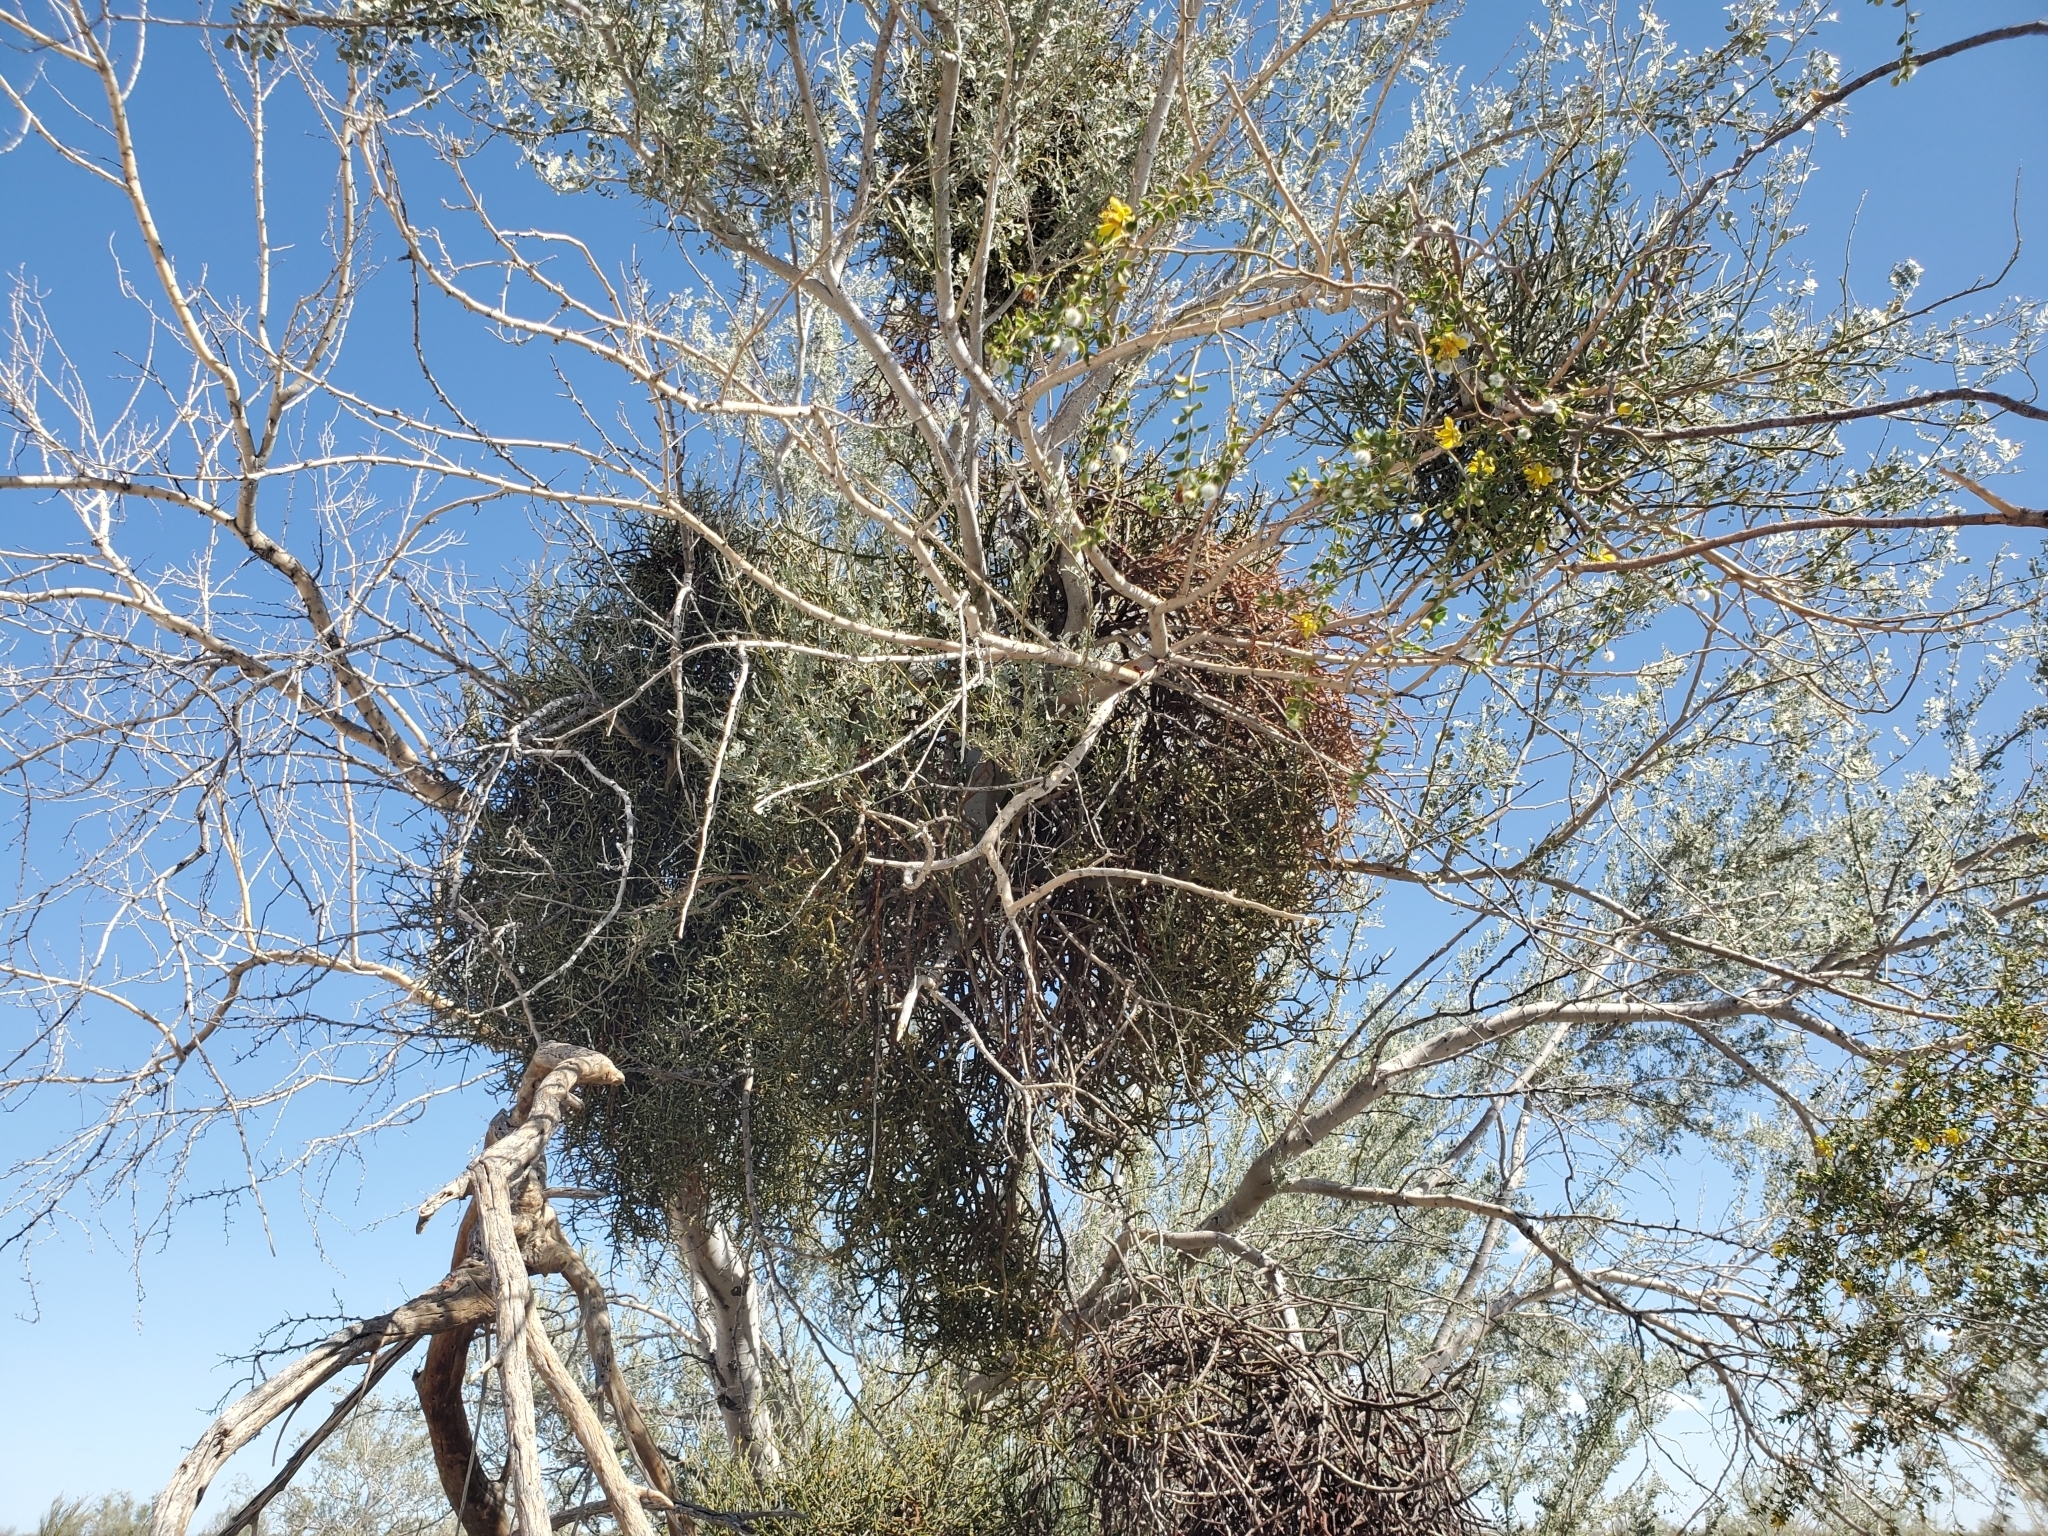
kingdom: Plantae
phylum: Tracheophyta
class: Magnoliopsida
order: Fabales
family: Fabaceae
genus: Olneya
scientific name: Olneya tesota
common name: Desert ironwood
